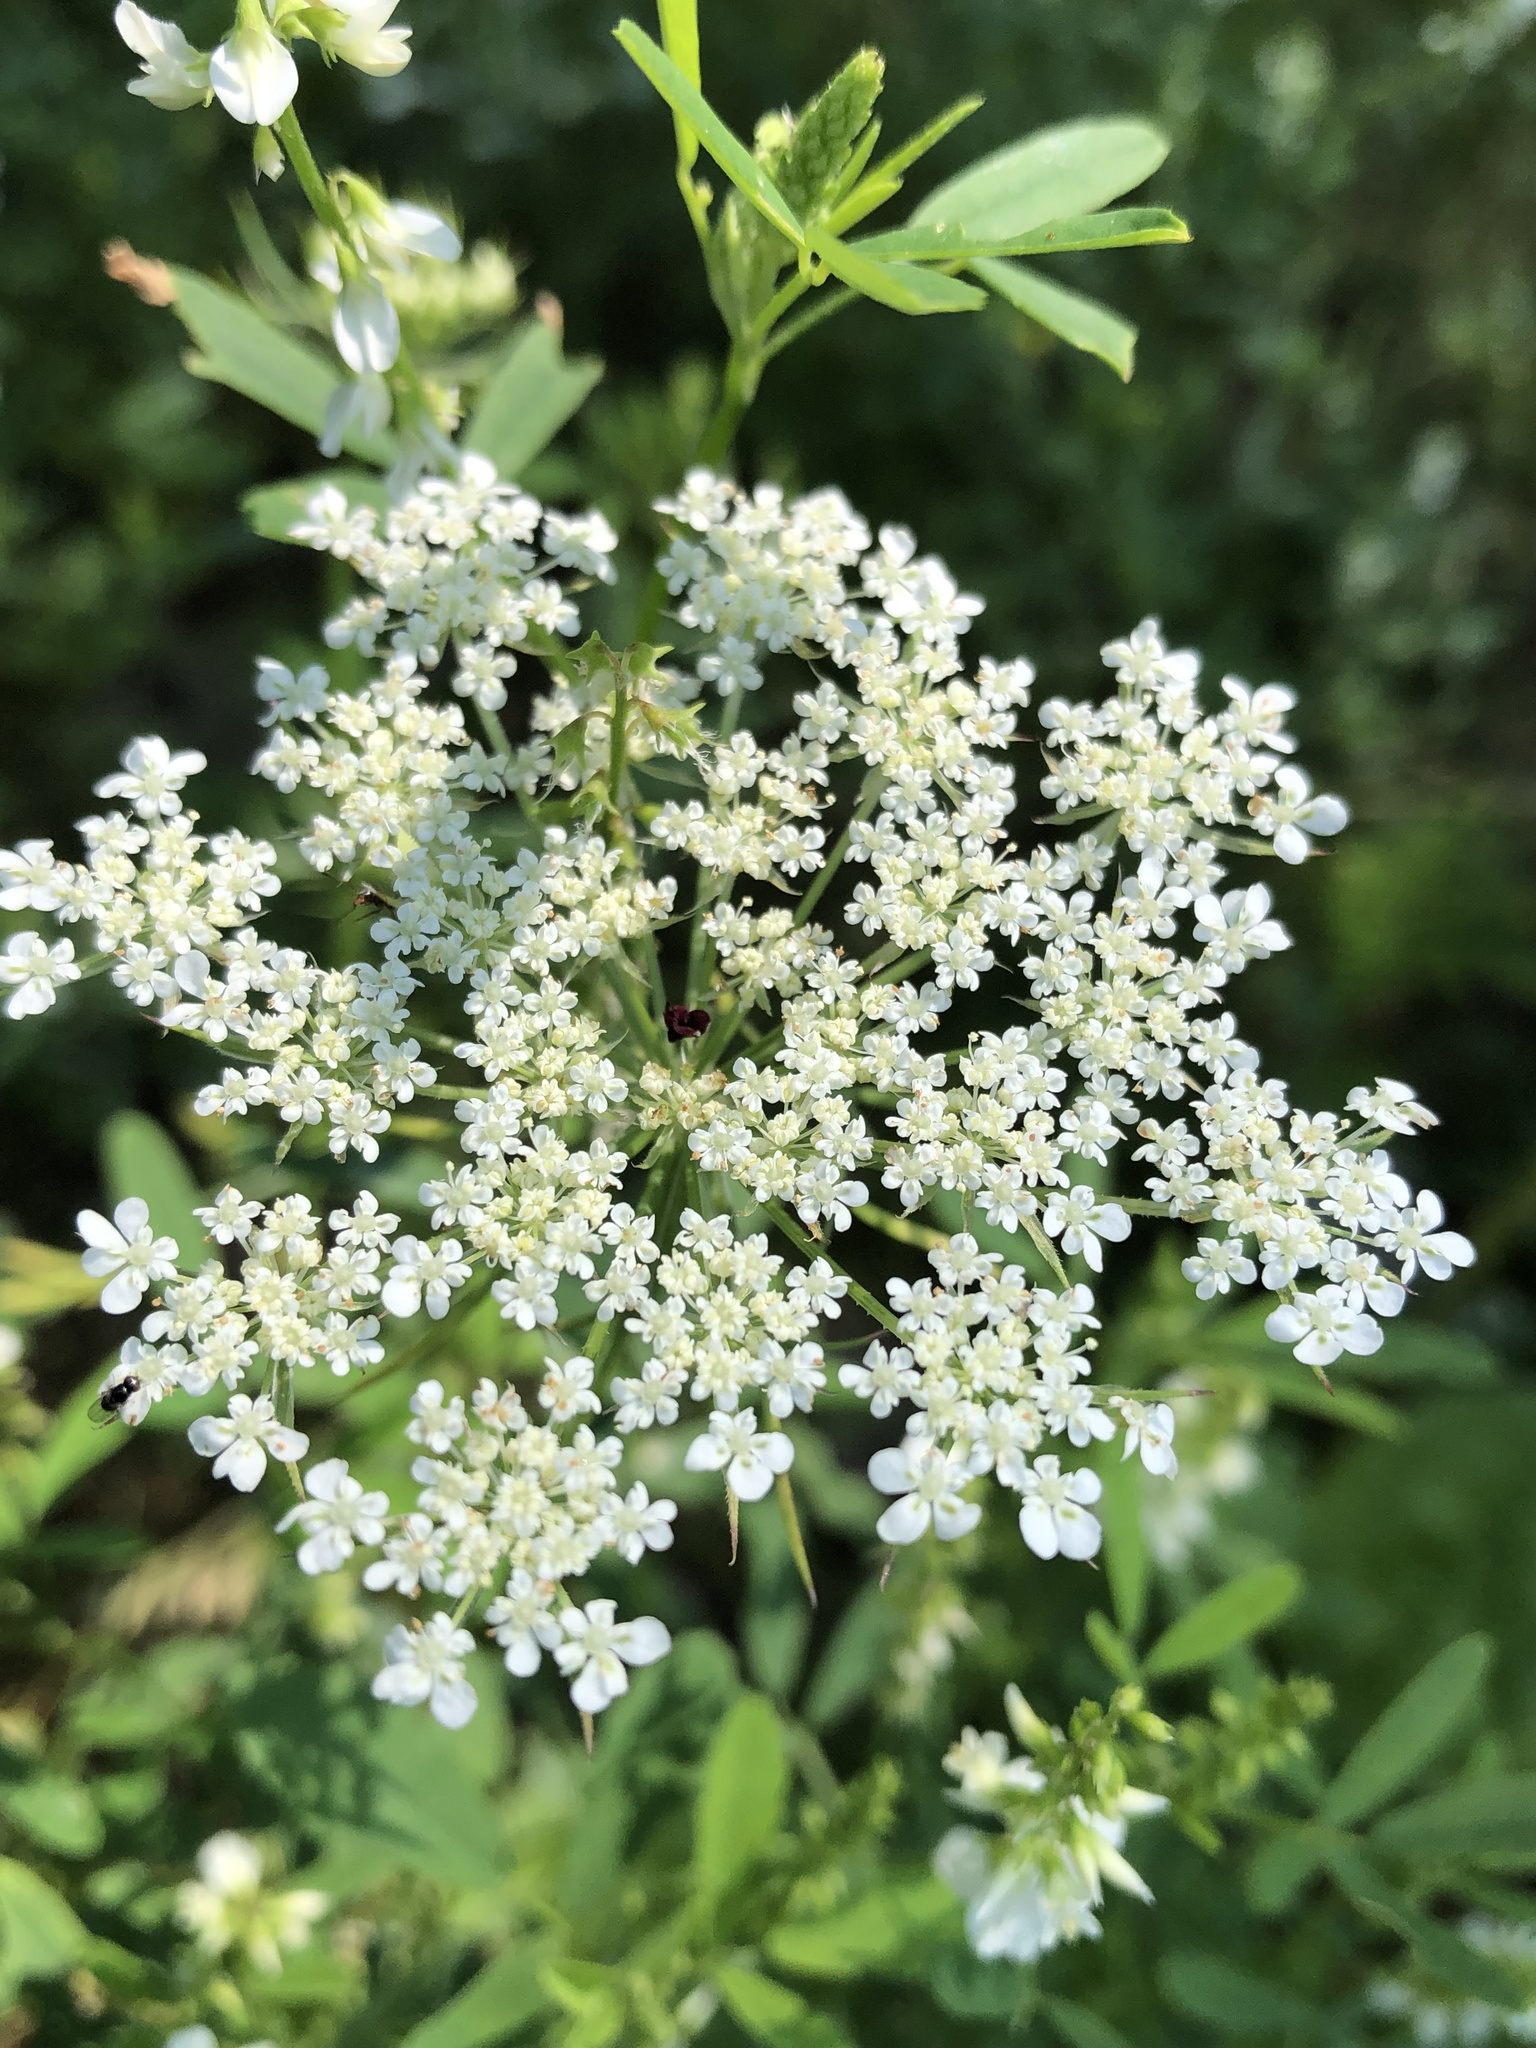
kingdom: Plantae
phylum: Tracheophyta
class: Magnoliopsida
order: Apiales
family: Apiaceae
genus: Daucus
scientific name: Daucus carota
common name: Wild carrot
